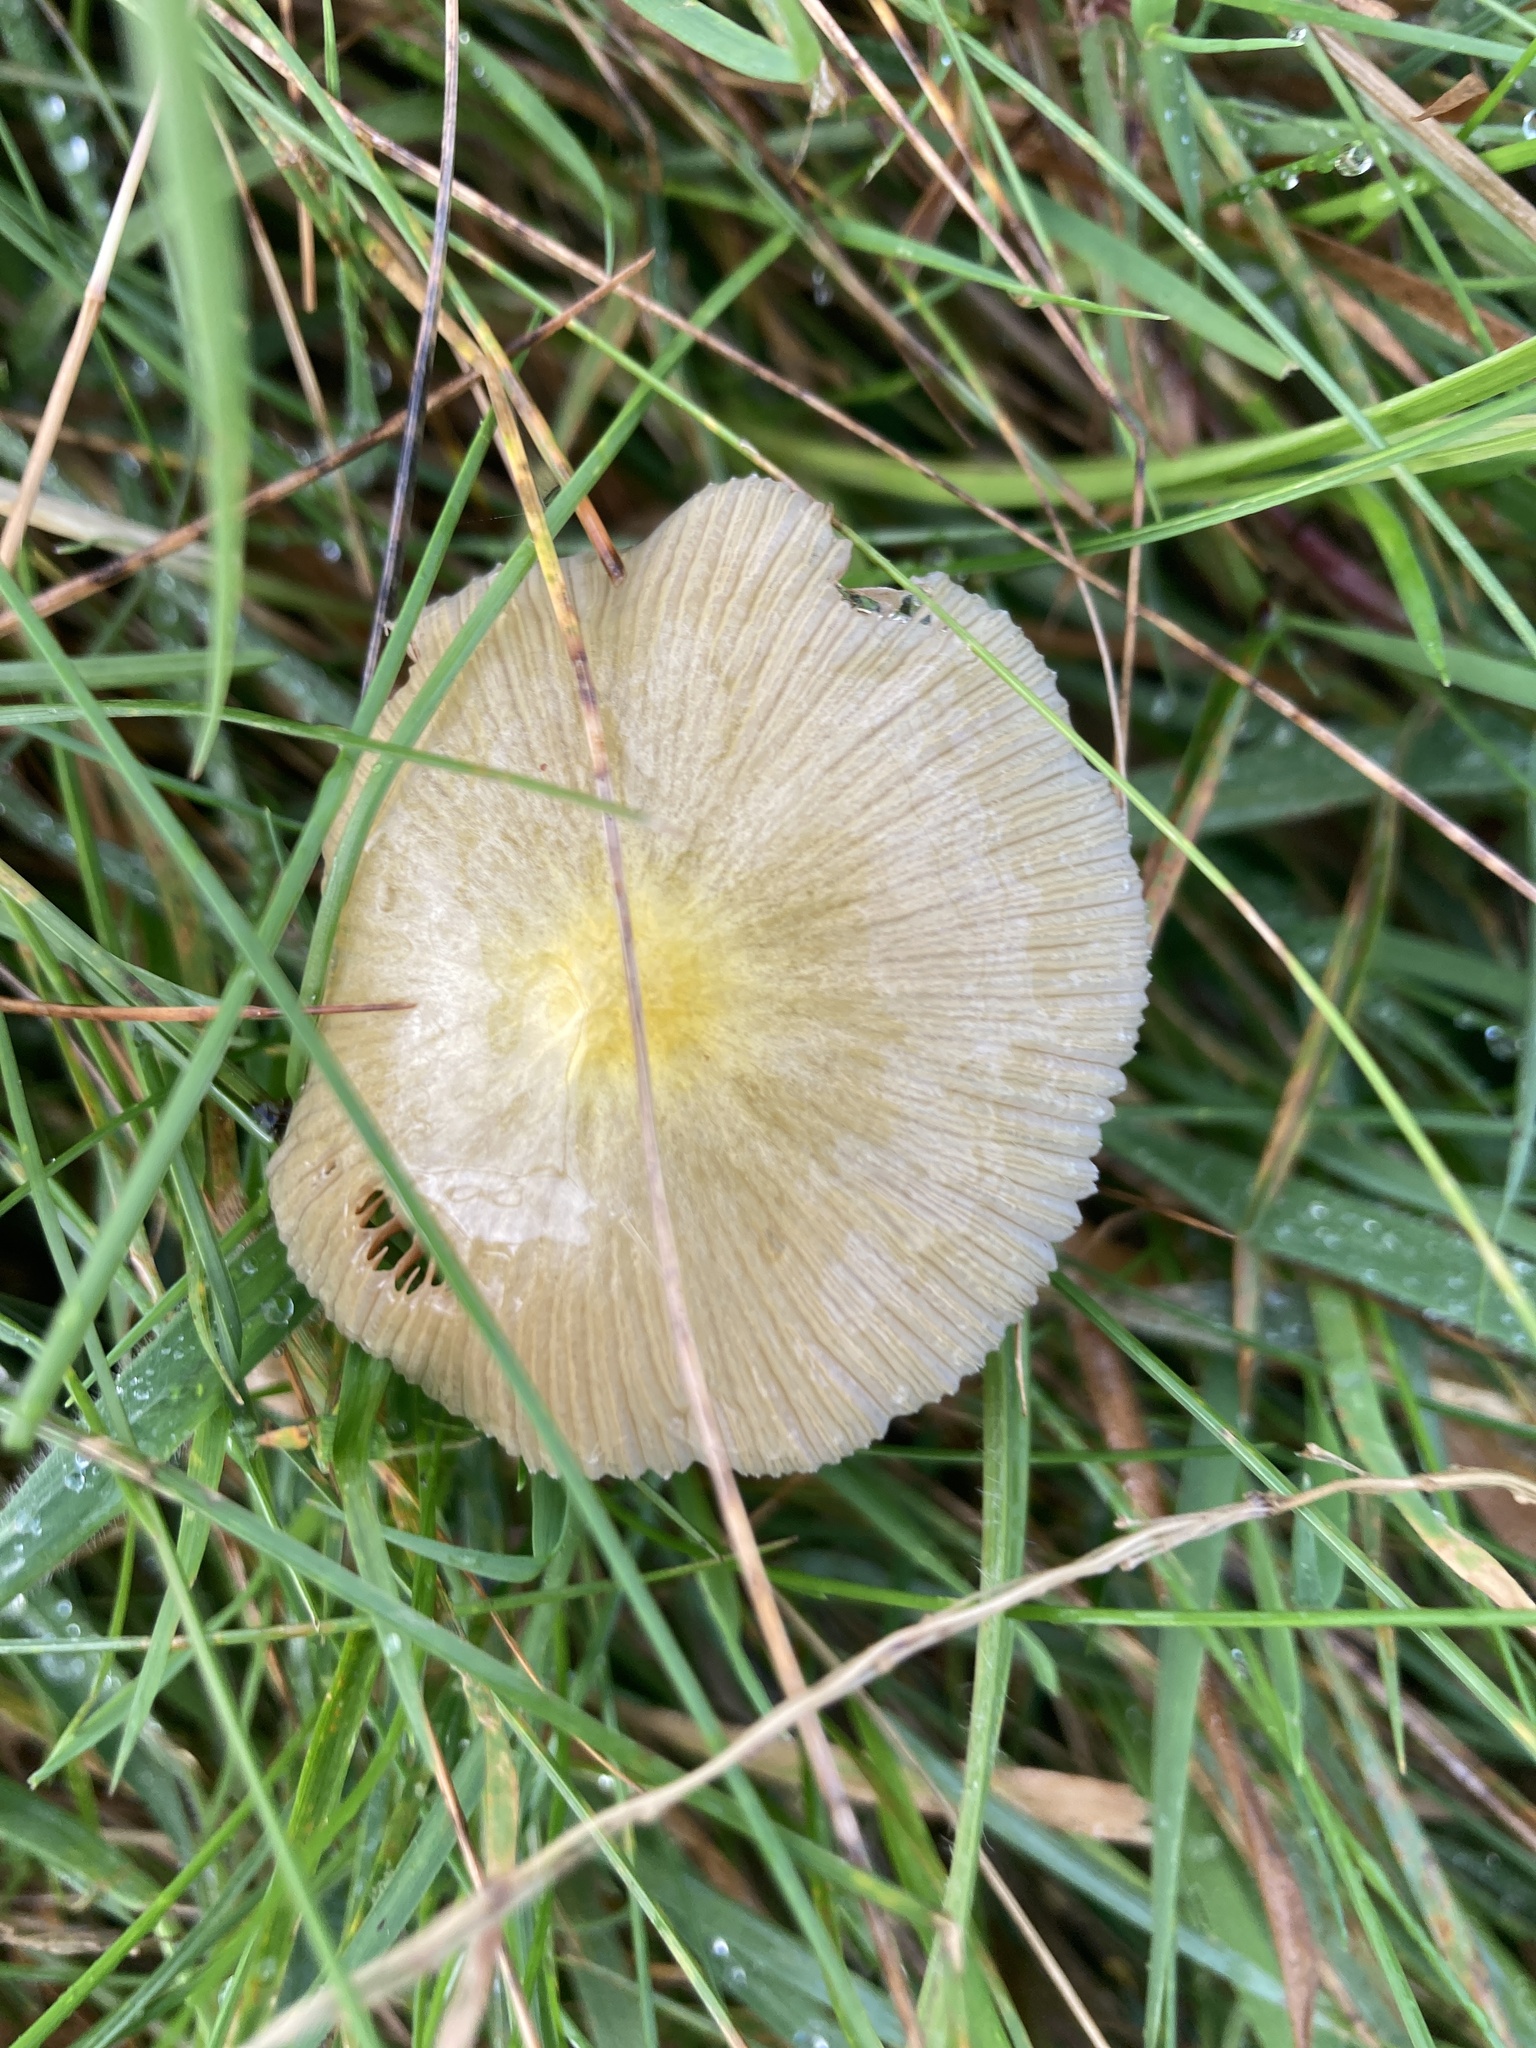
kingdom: Fungi
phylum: Basidiomycota
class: Agaricomycetes
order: Agaricales
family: Bolbitiaceae
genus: Bolbitius
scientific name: Bolbitius titubans
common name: Yellow fieldcap
